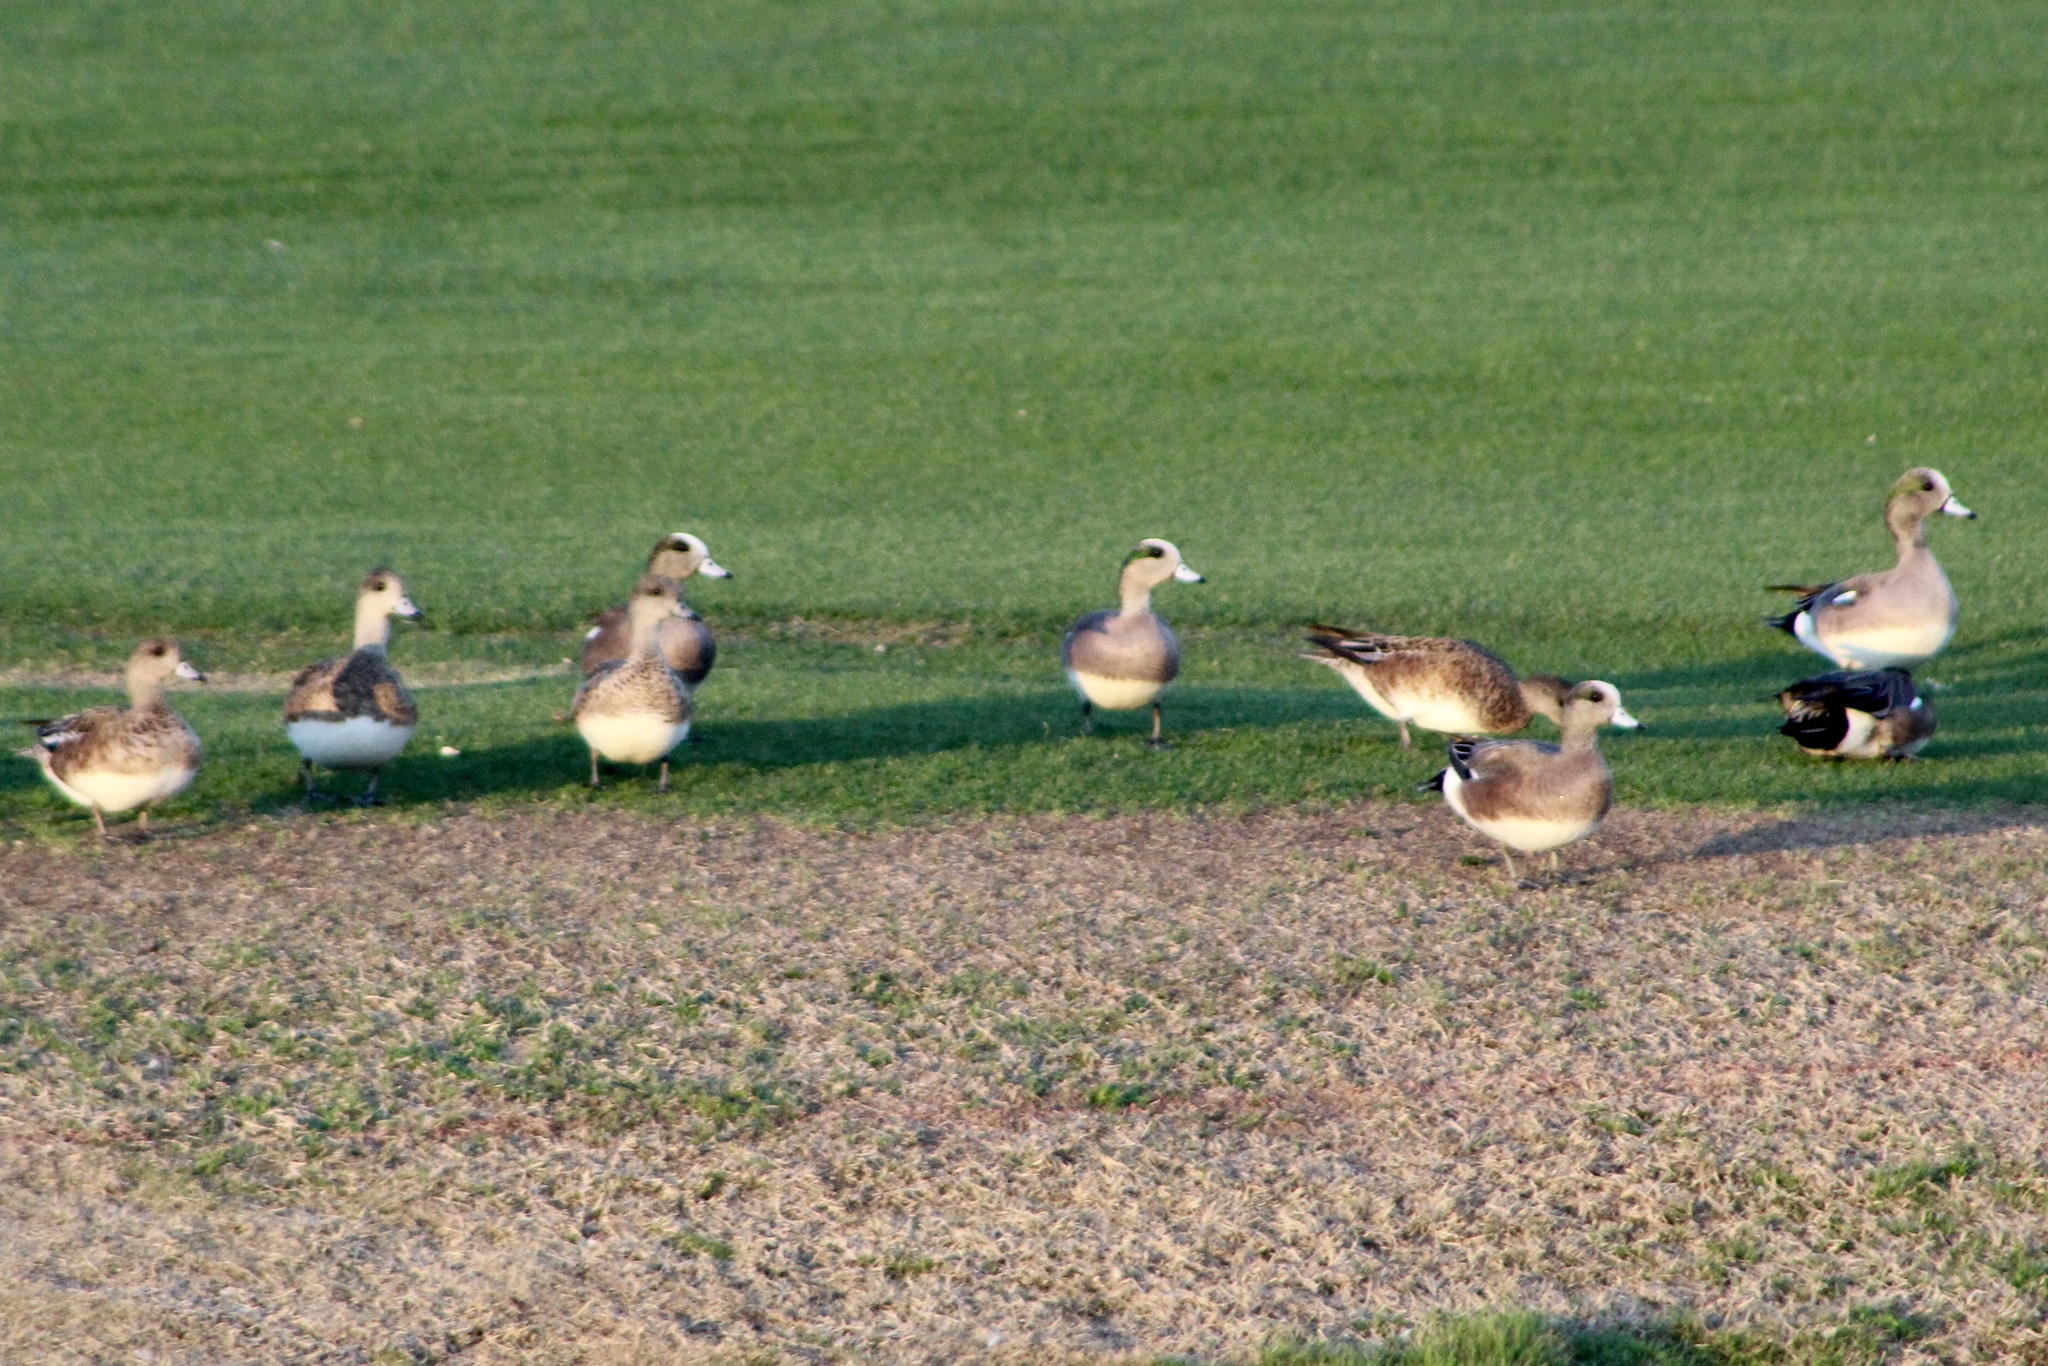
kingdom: Animalia
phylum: Chordata
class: Aves
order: Anseriformes
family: Anatidae
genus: Mareca
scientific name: Mareca americana
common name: American wigeon
